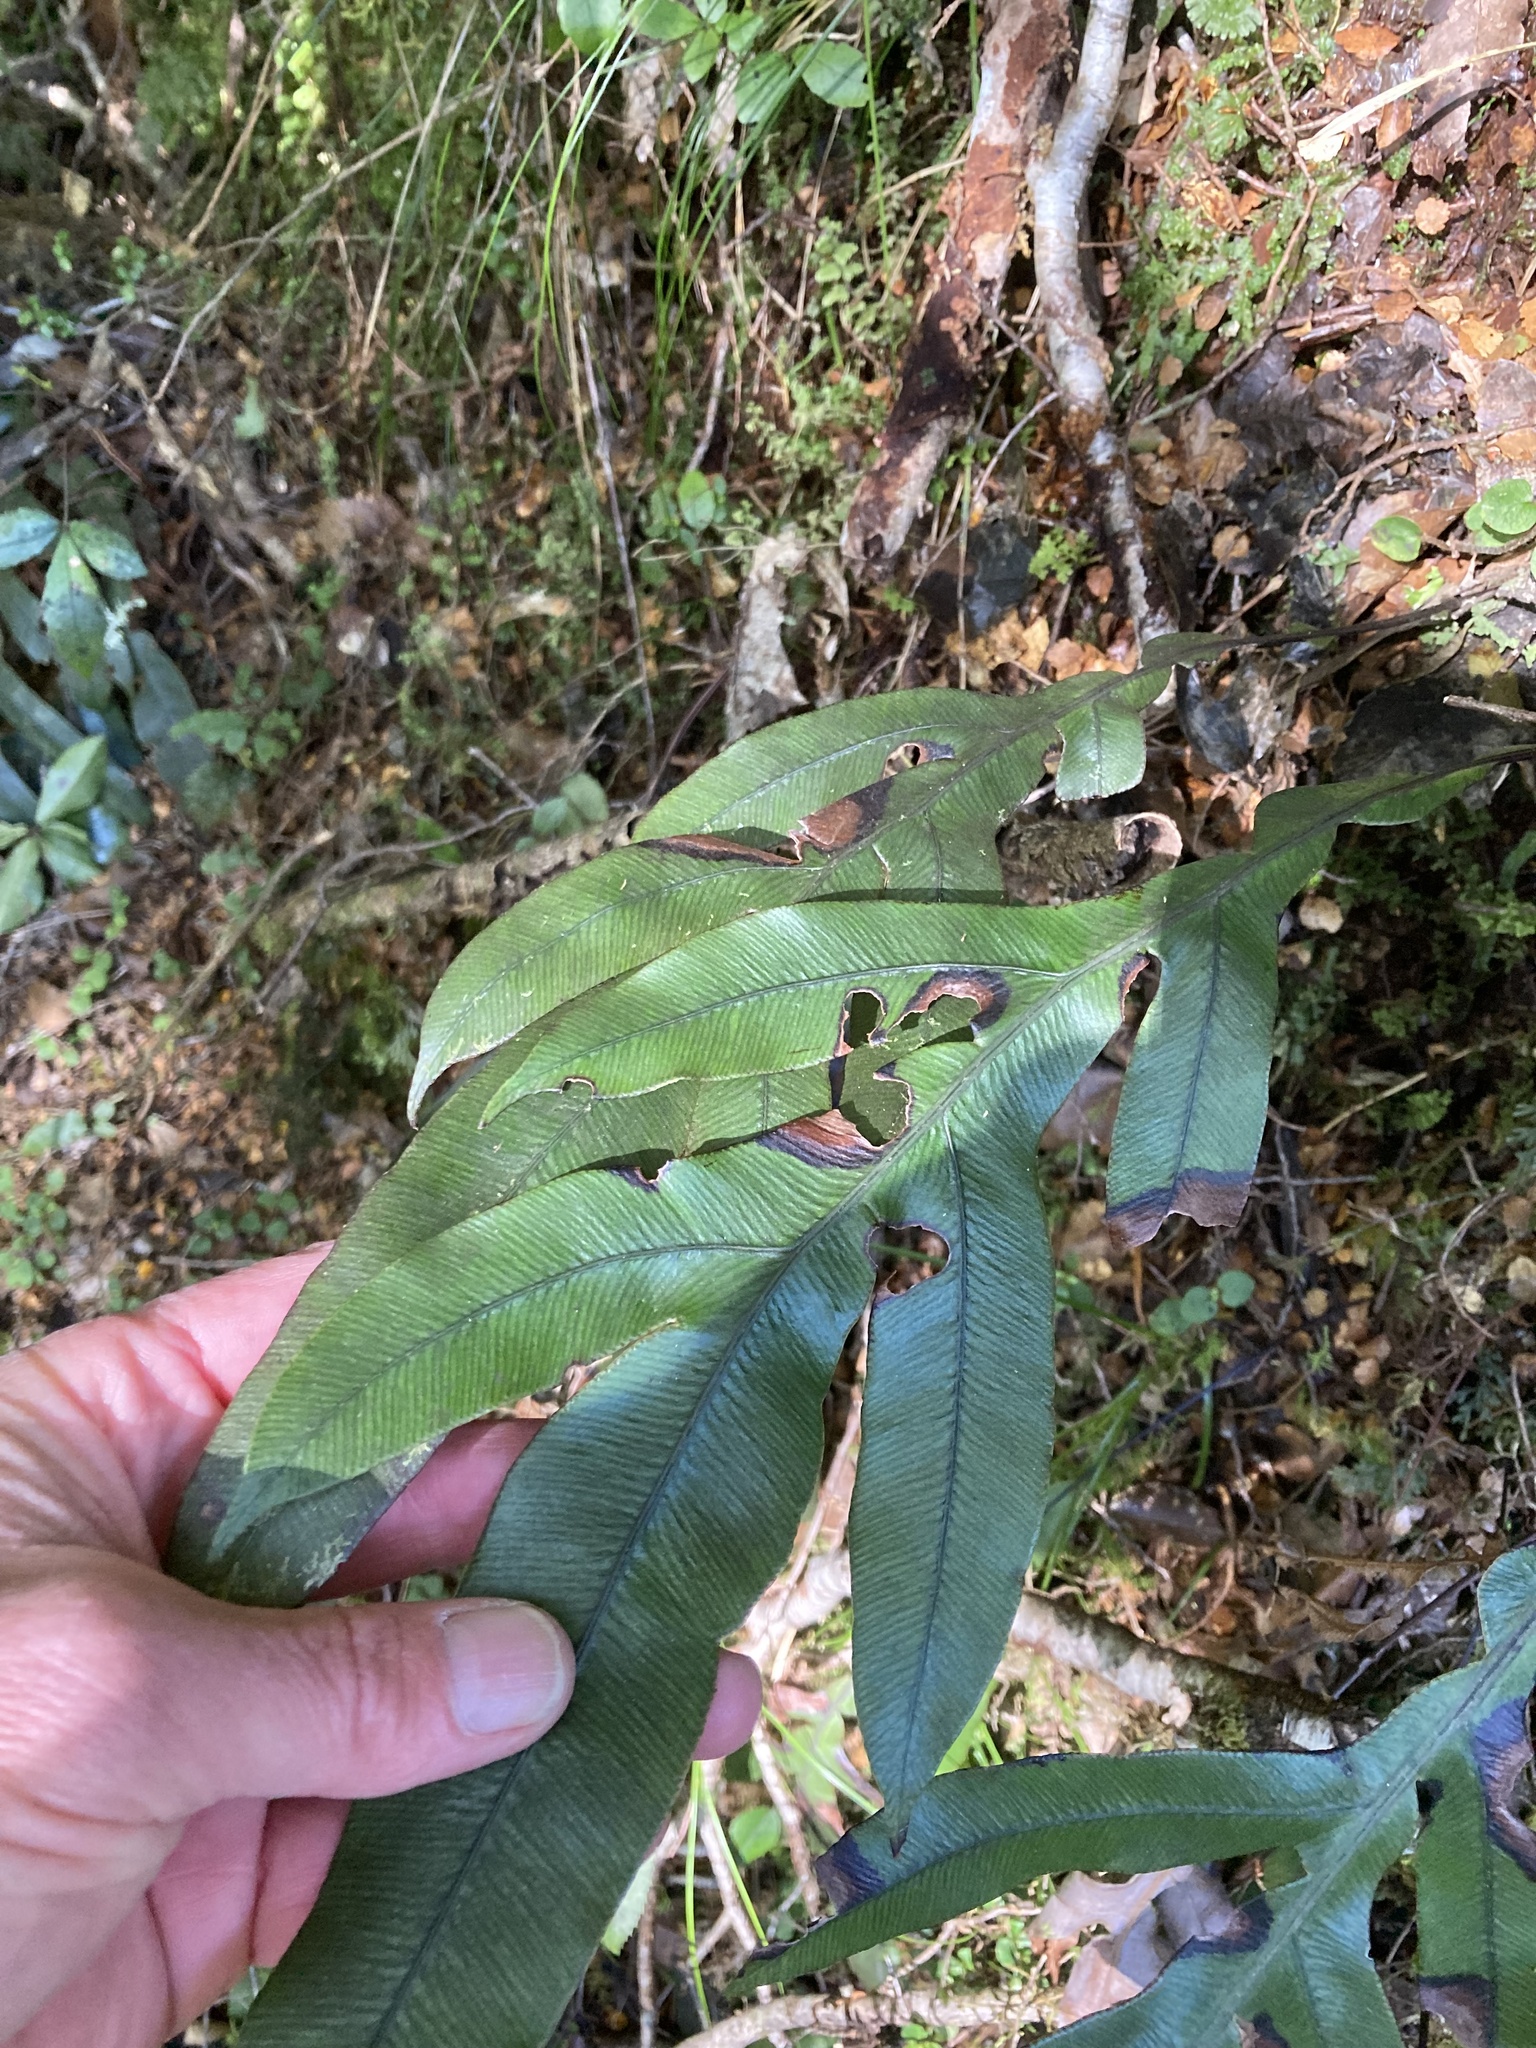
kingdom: Plantae
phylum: Tracheophyta
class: Polypodiopsida
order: Polypodiales
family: Blechnaceae
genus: Austroblechnum
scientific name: Austroblechnum colensoi
